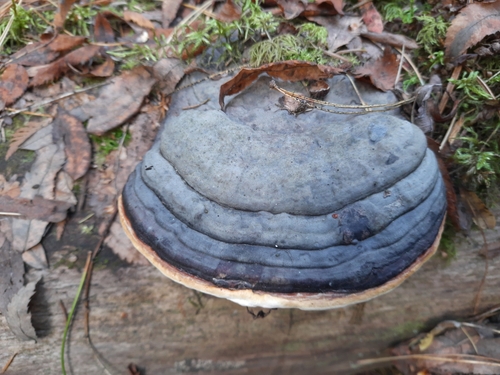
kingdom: Fungi
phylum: Basidiomycota
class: Agaricomycetes
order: Polyporales
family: Fomitopsidaceae
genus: Fomitopsis
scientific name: Fomitopsis pinicola
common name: Red-belted bracket
